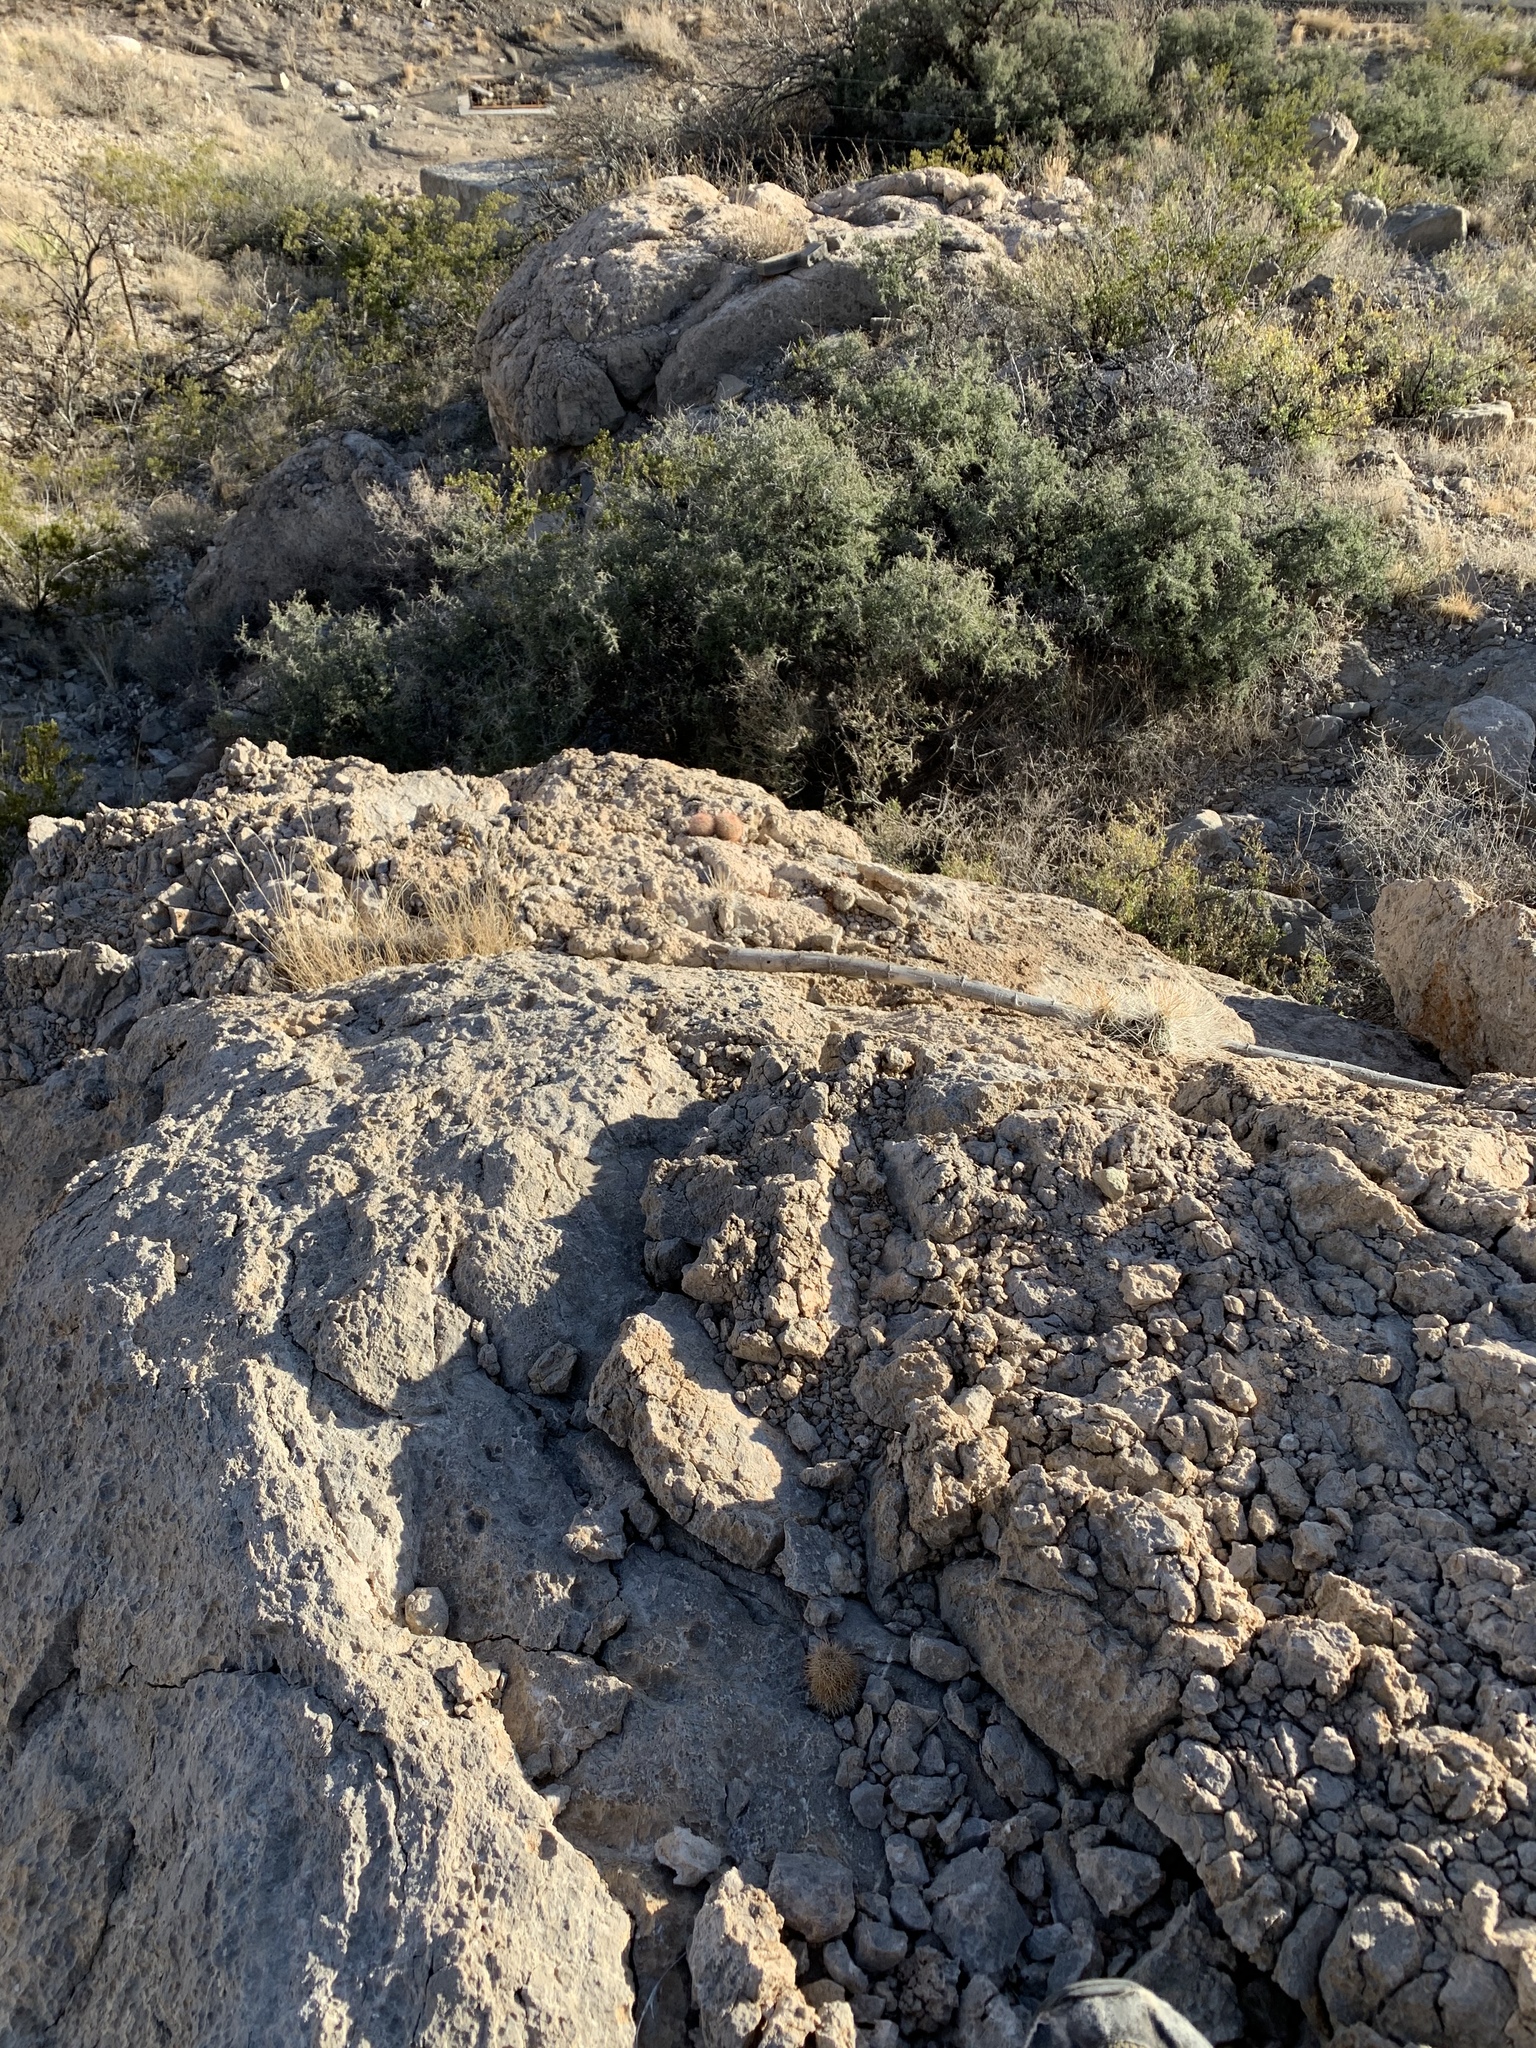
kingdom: Plantae
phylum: Tracheophyta
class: Magnoliopsida
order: Caryophyllales
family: Cactaceae
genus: Echinocereus
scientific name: Echinocereus
